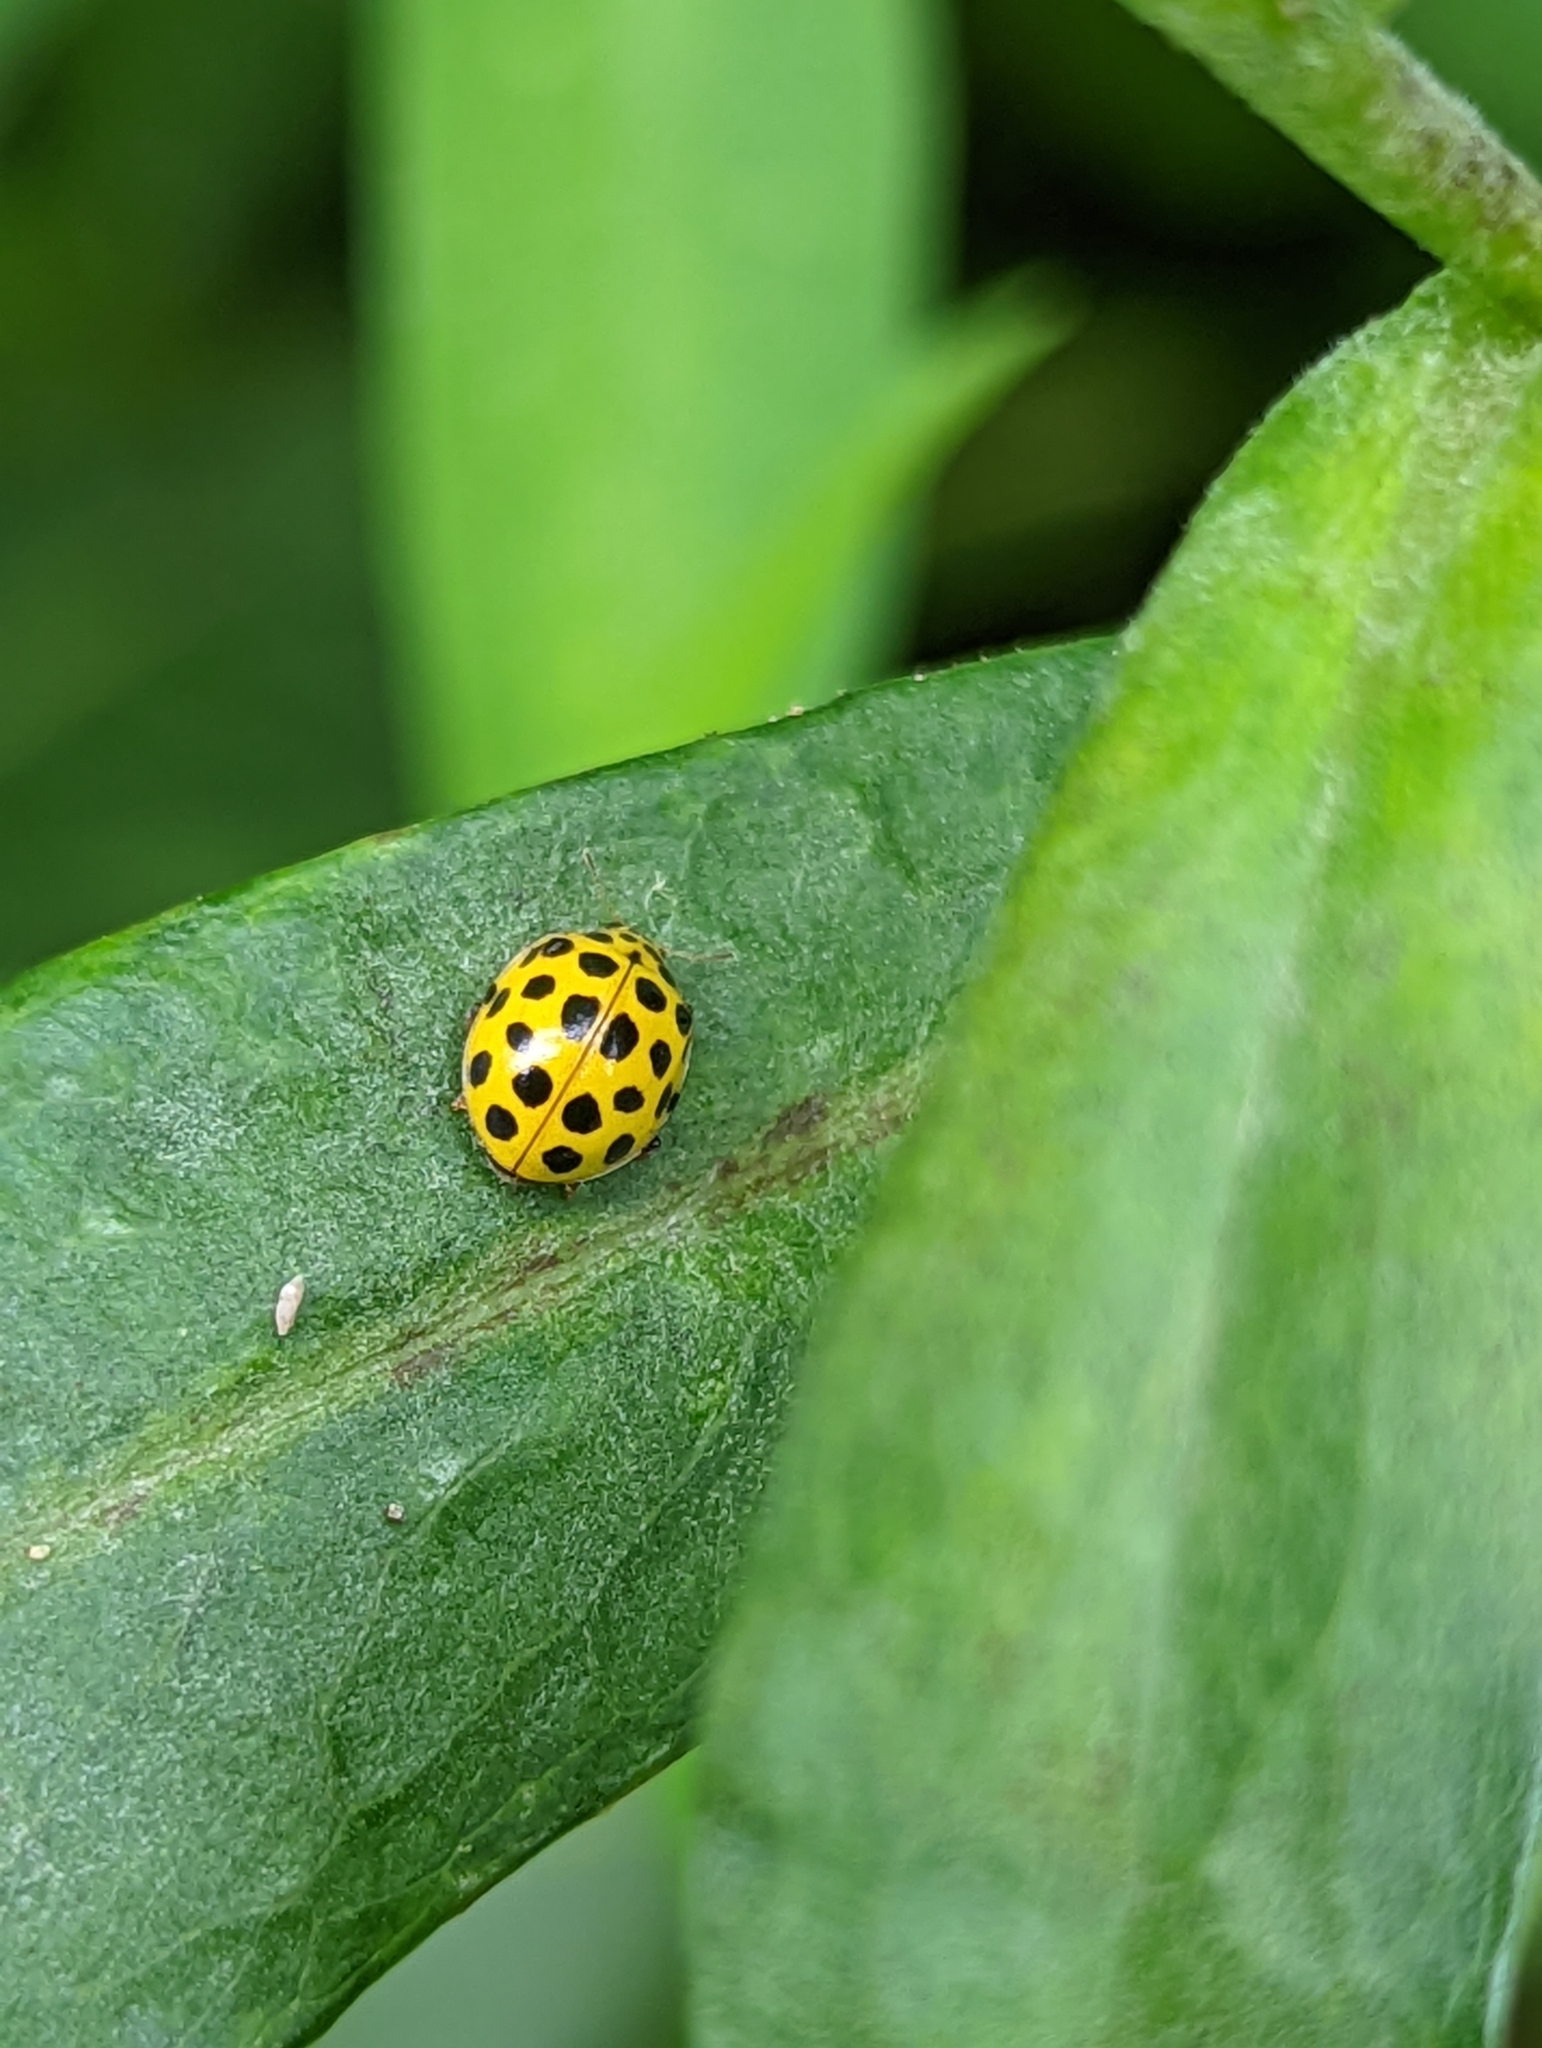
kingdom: Animalia
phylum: Arthropoda
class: Insecta
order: Coleoptera
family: Coccinellidae
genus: Psyllobora
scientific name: Psyllobora vigintiduopunctata
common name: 22-spot ladybird
